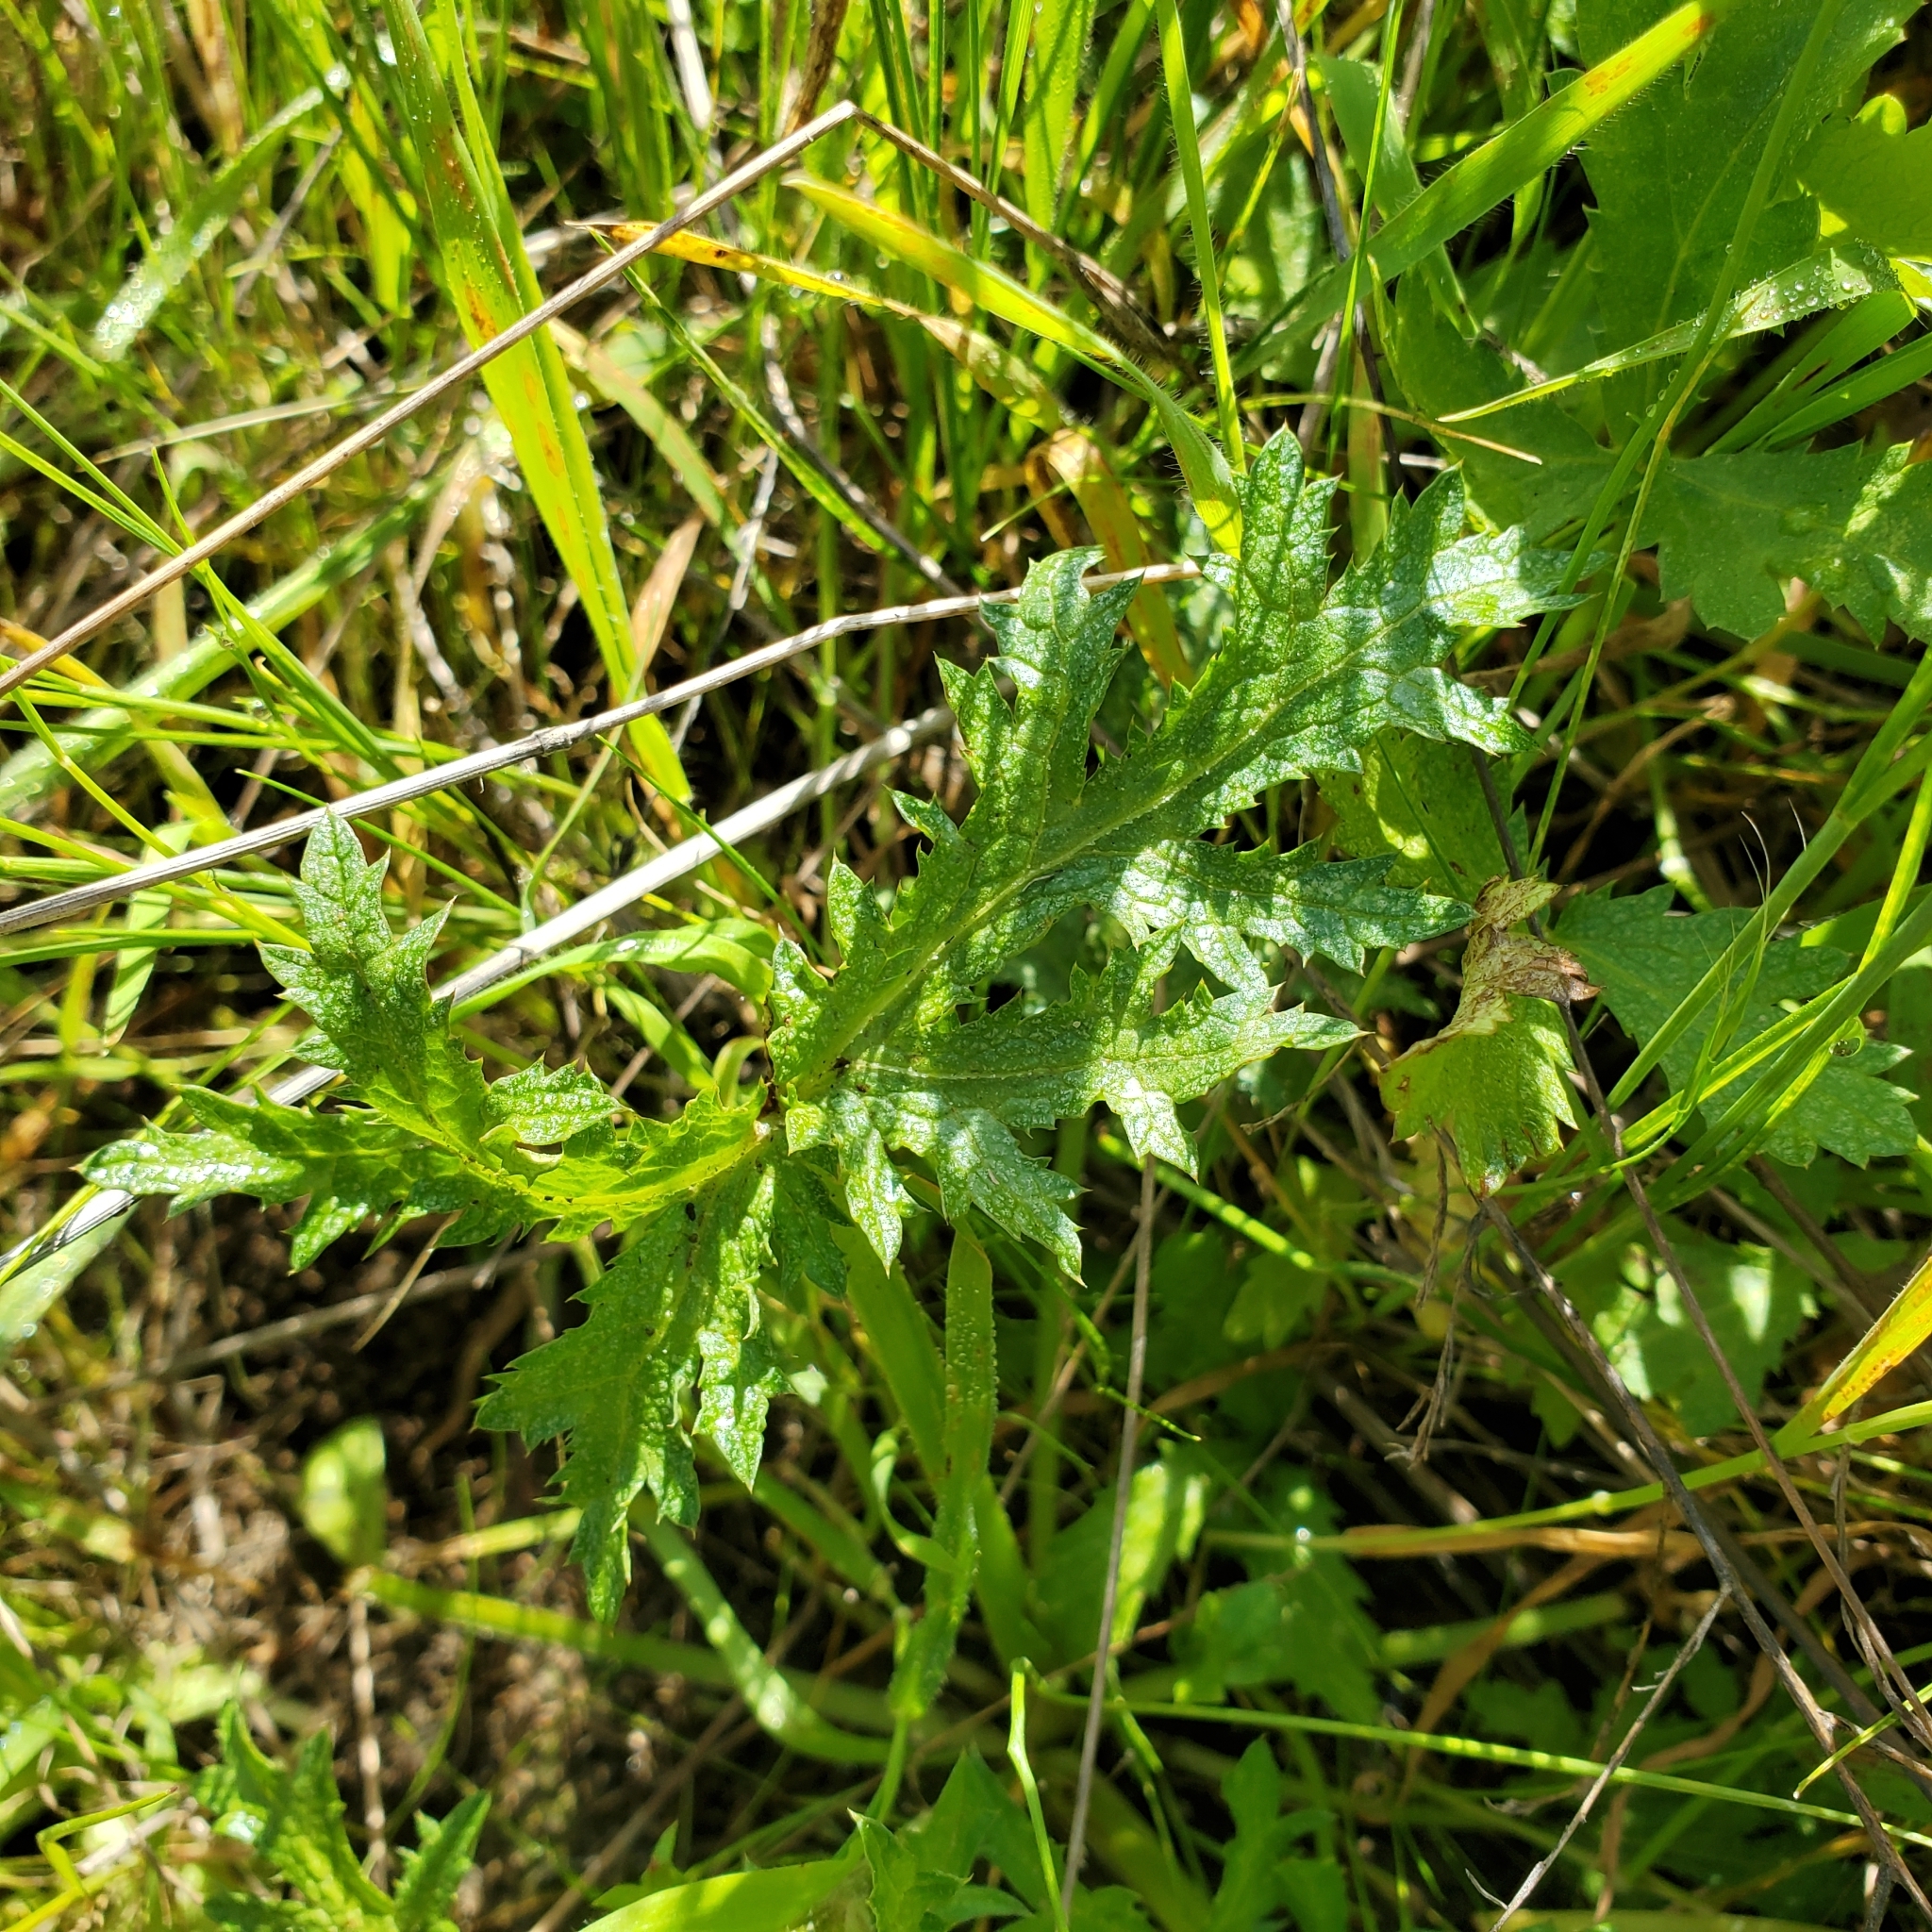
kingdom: Plantae
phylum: Tracheophyta
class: Magnoliopsida
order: Apiales
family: Apiaceae
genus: Sanicula
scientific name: Sanicula arguta
